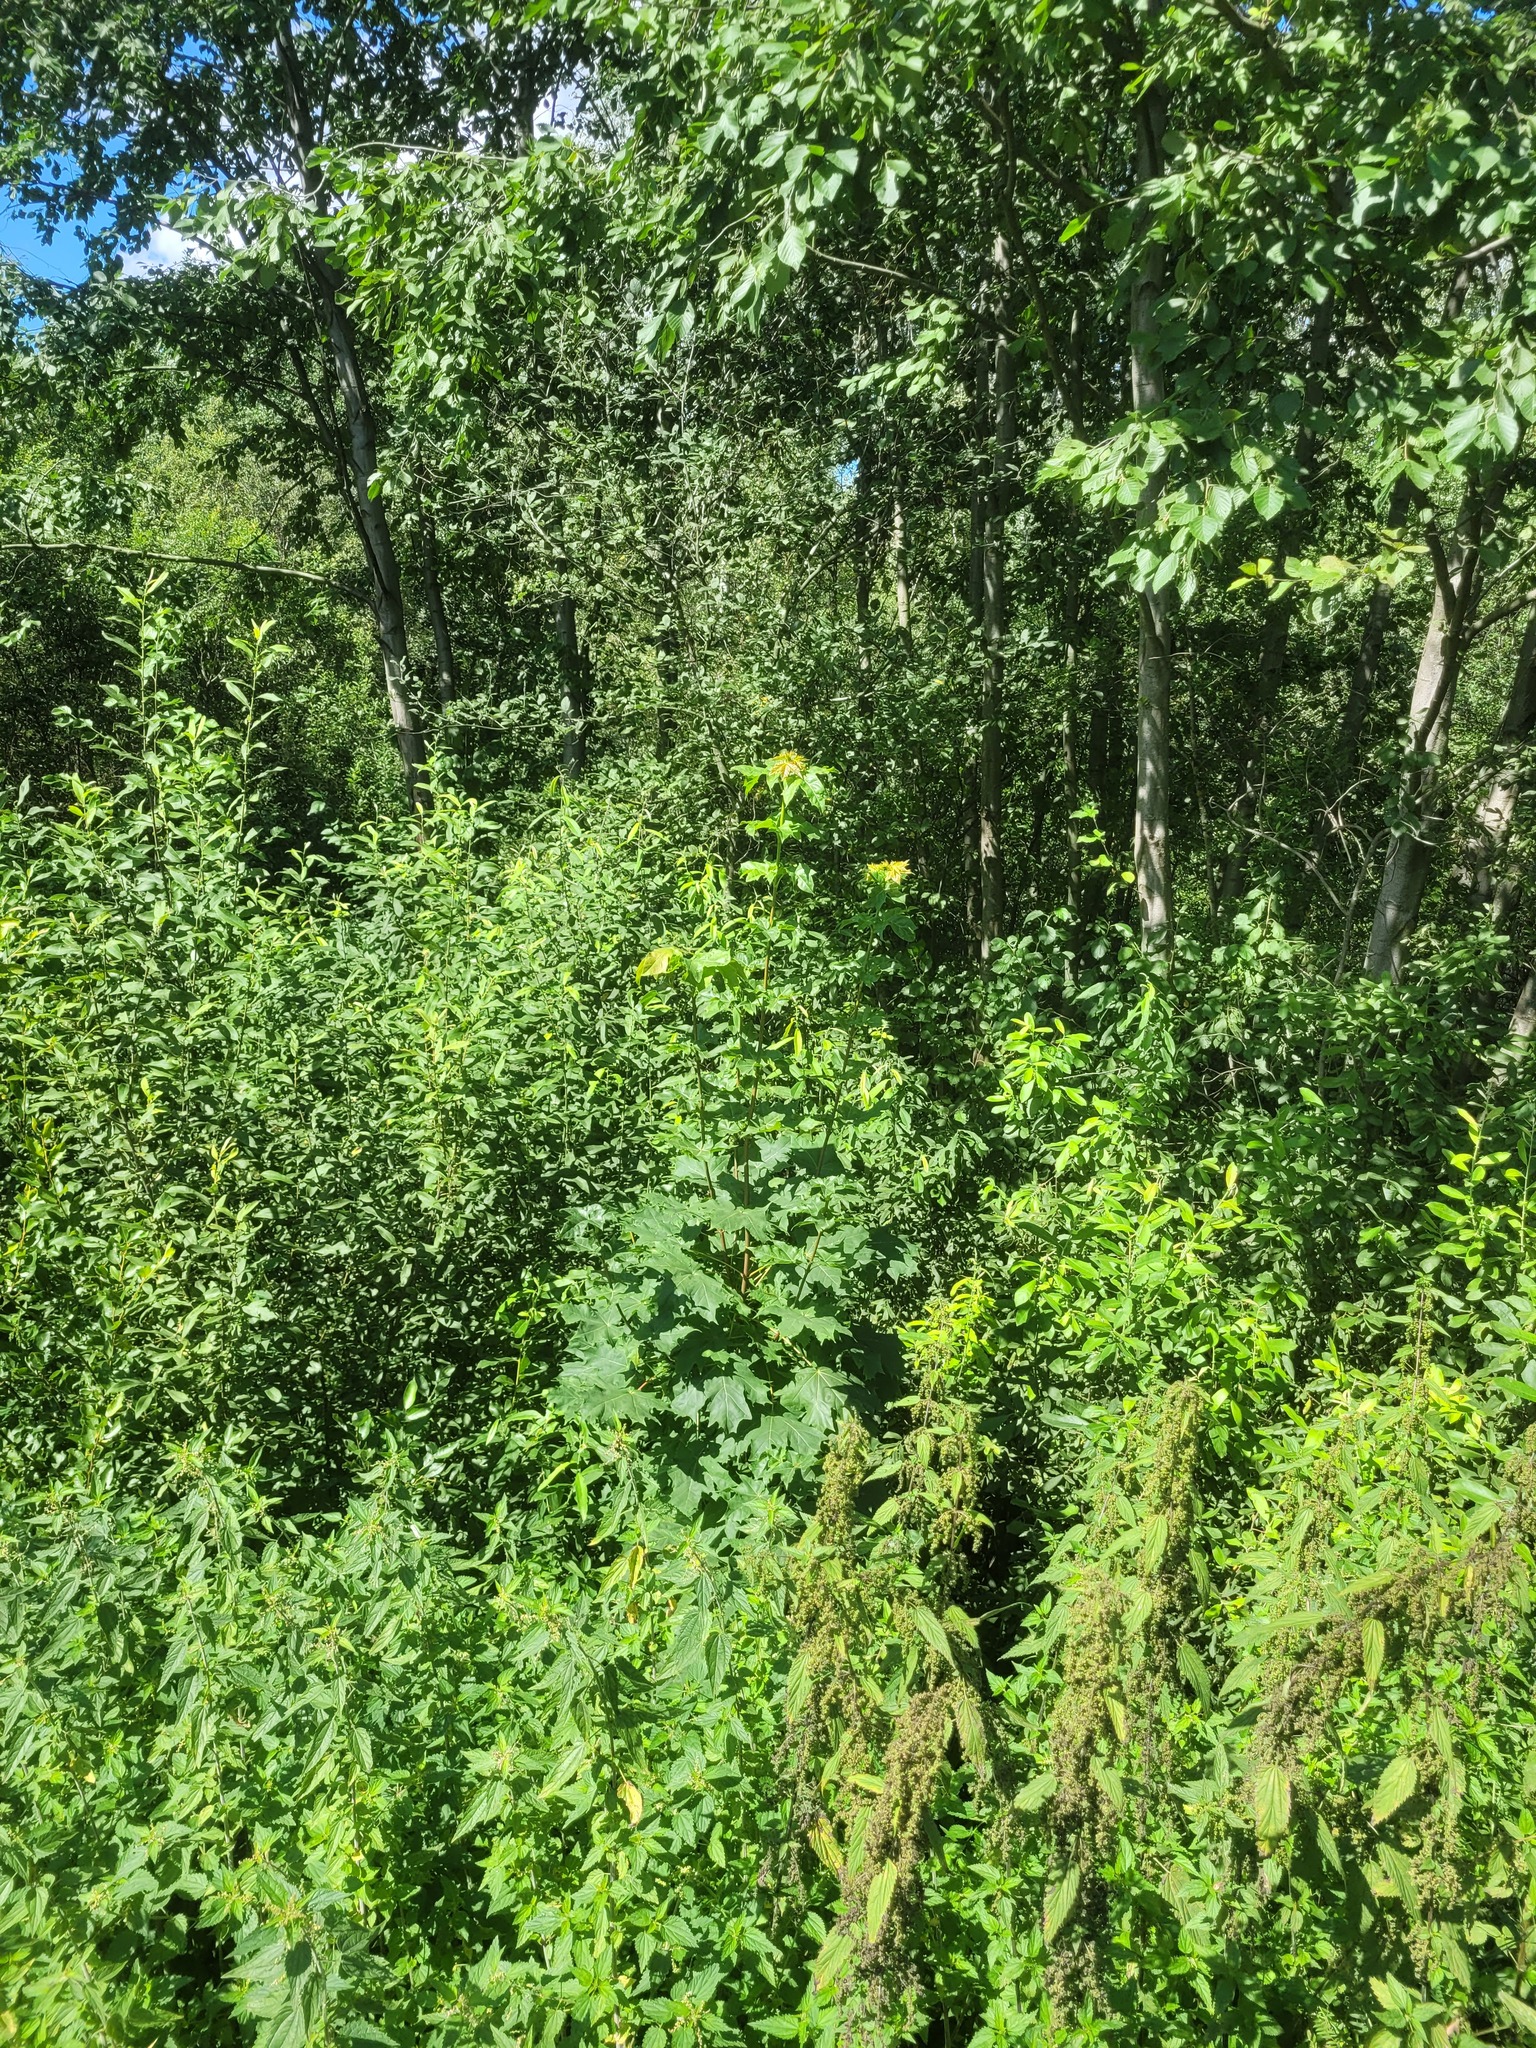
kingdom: Plantae
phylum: Tracheophyta
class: Magnoliopsida
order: Sapindales
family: Sapindaceae
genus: Acer
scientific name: Acer platanoides
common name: Norway maple
